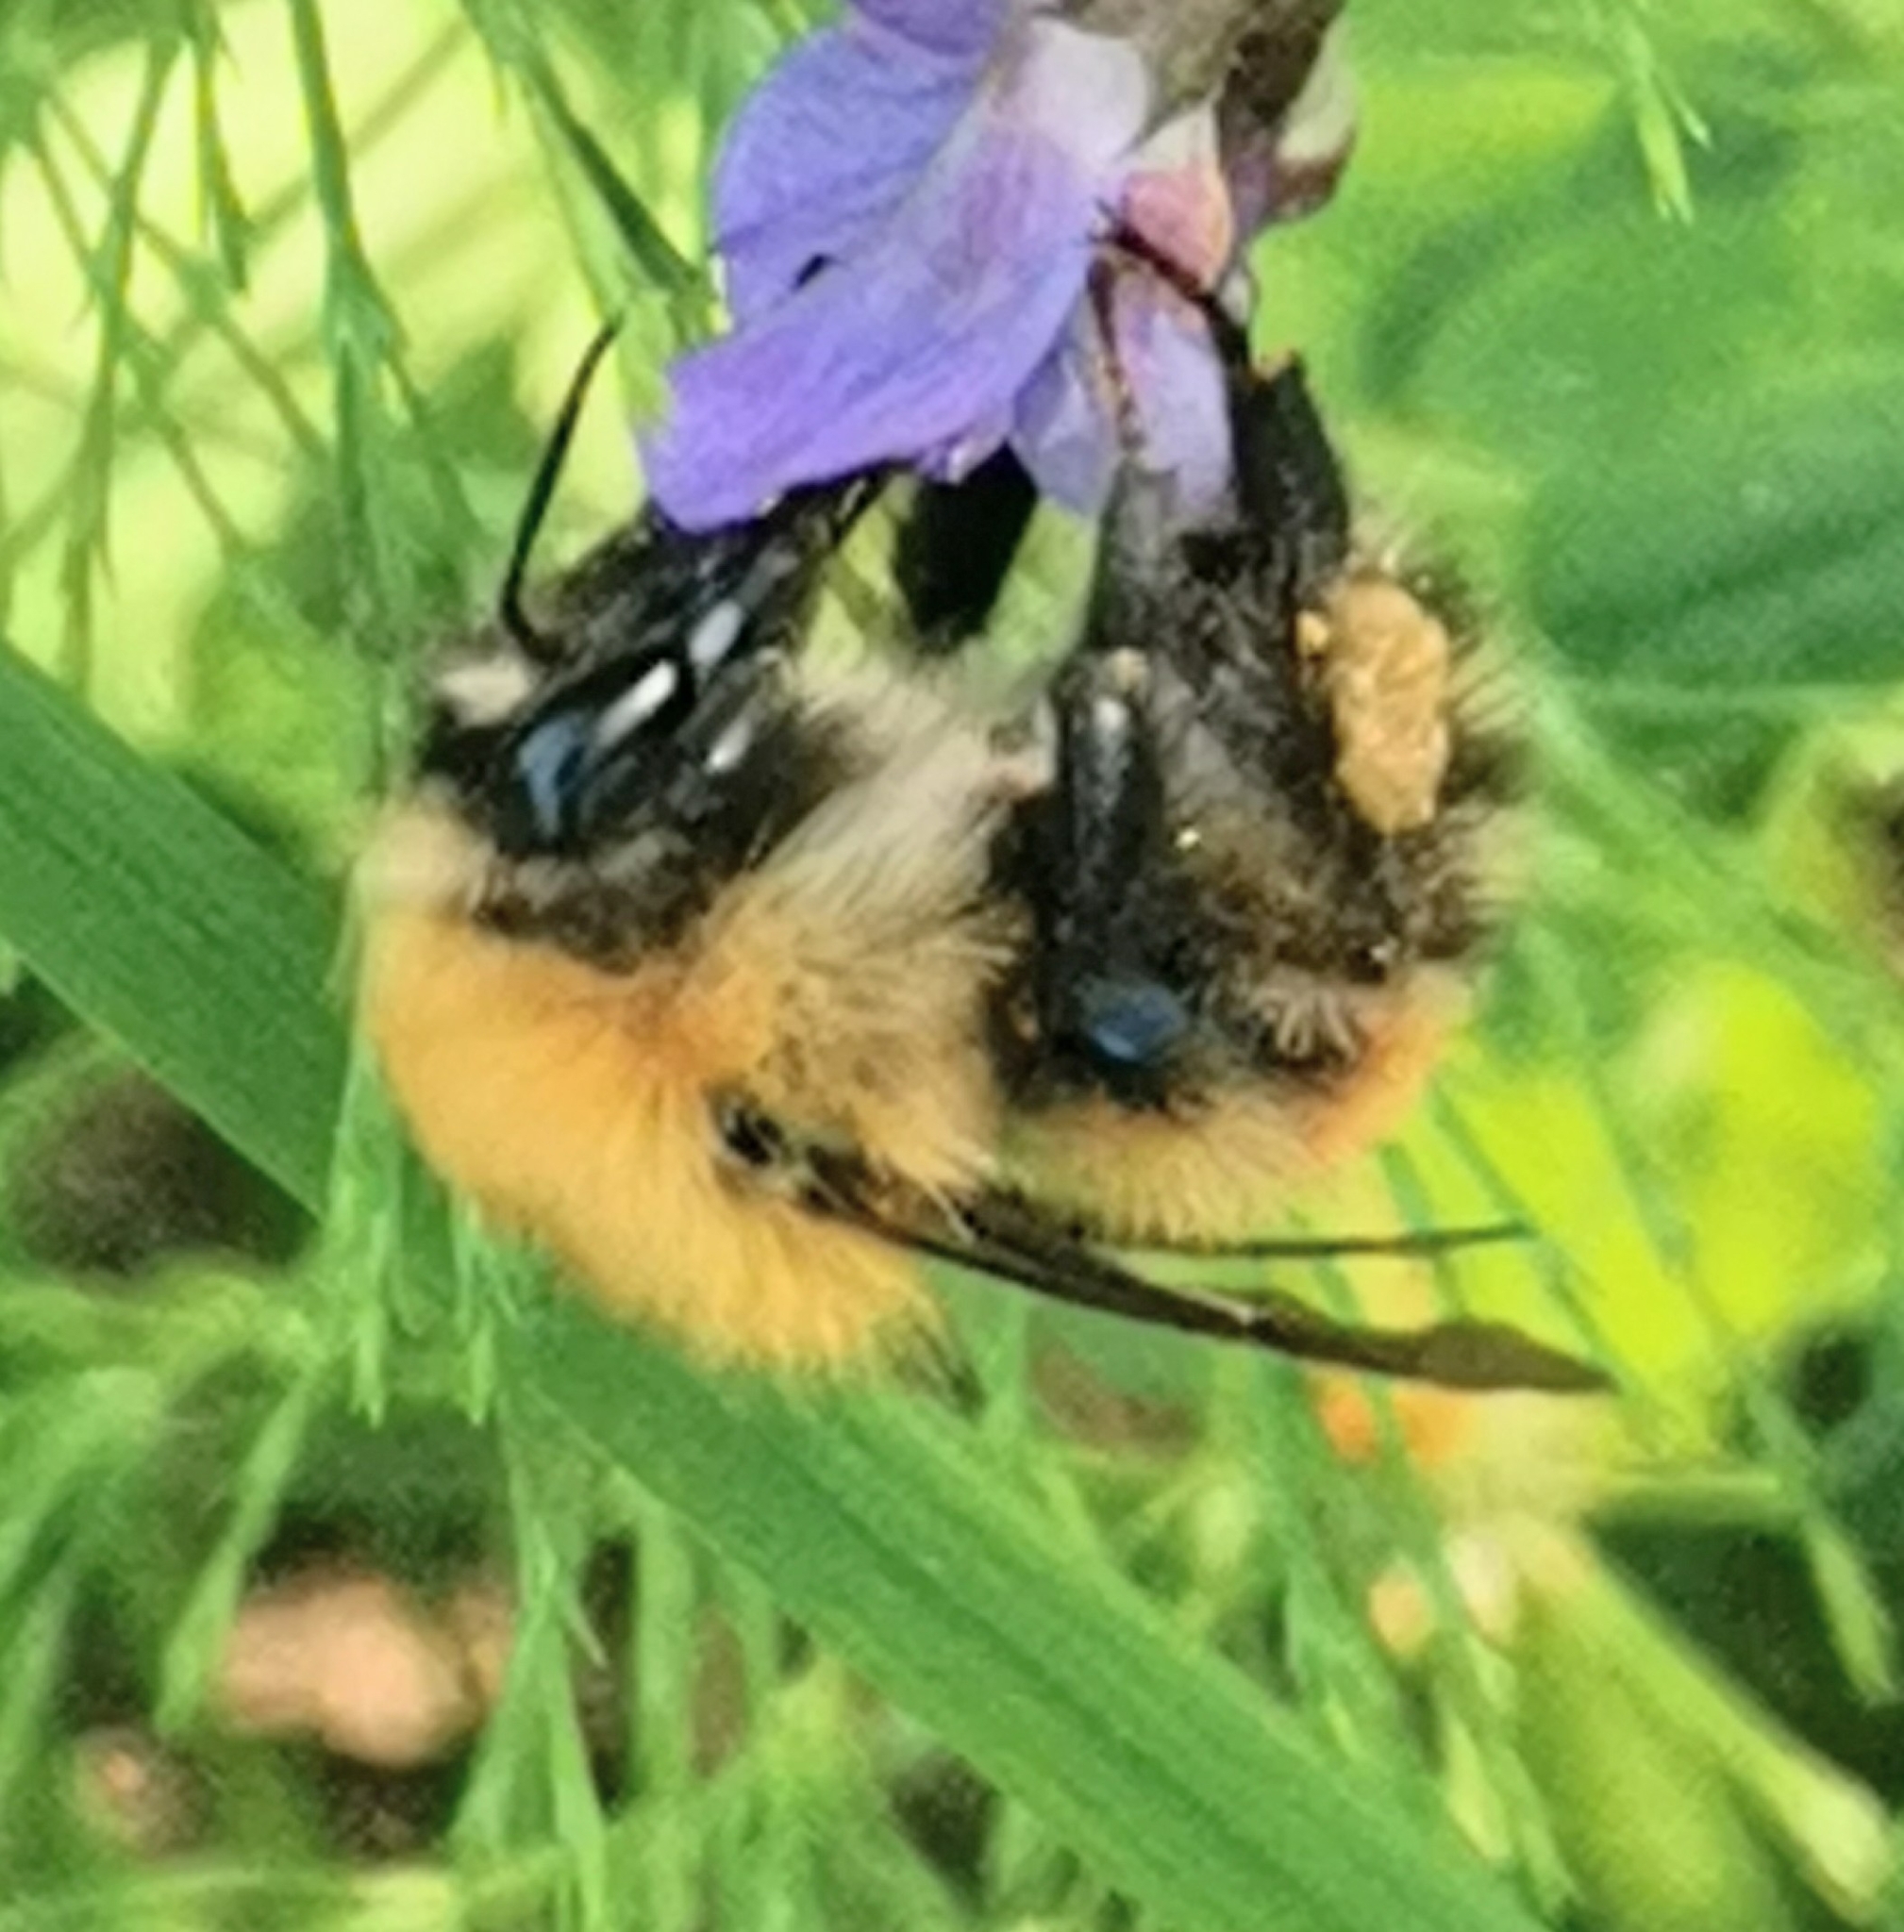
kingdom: Animalia
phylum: Arthropoda
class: Insecta
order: Hymenoptera
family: Apidae
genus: Bombus
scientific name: Bombus schrencki
